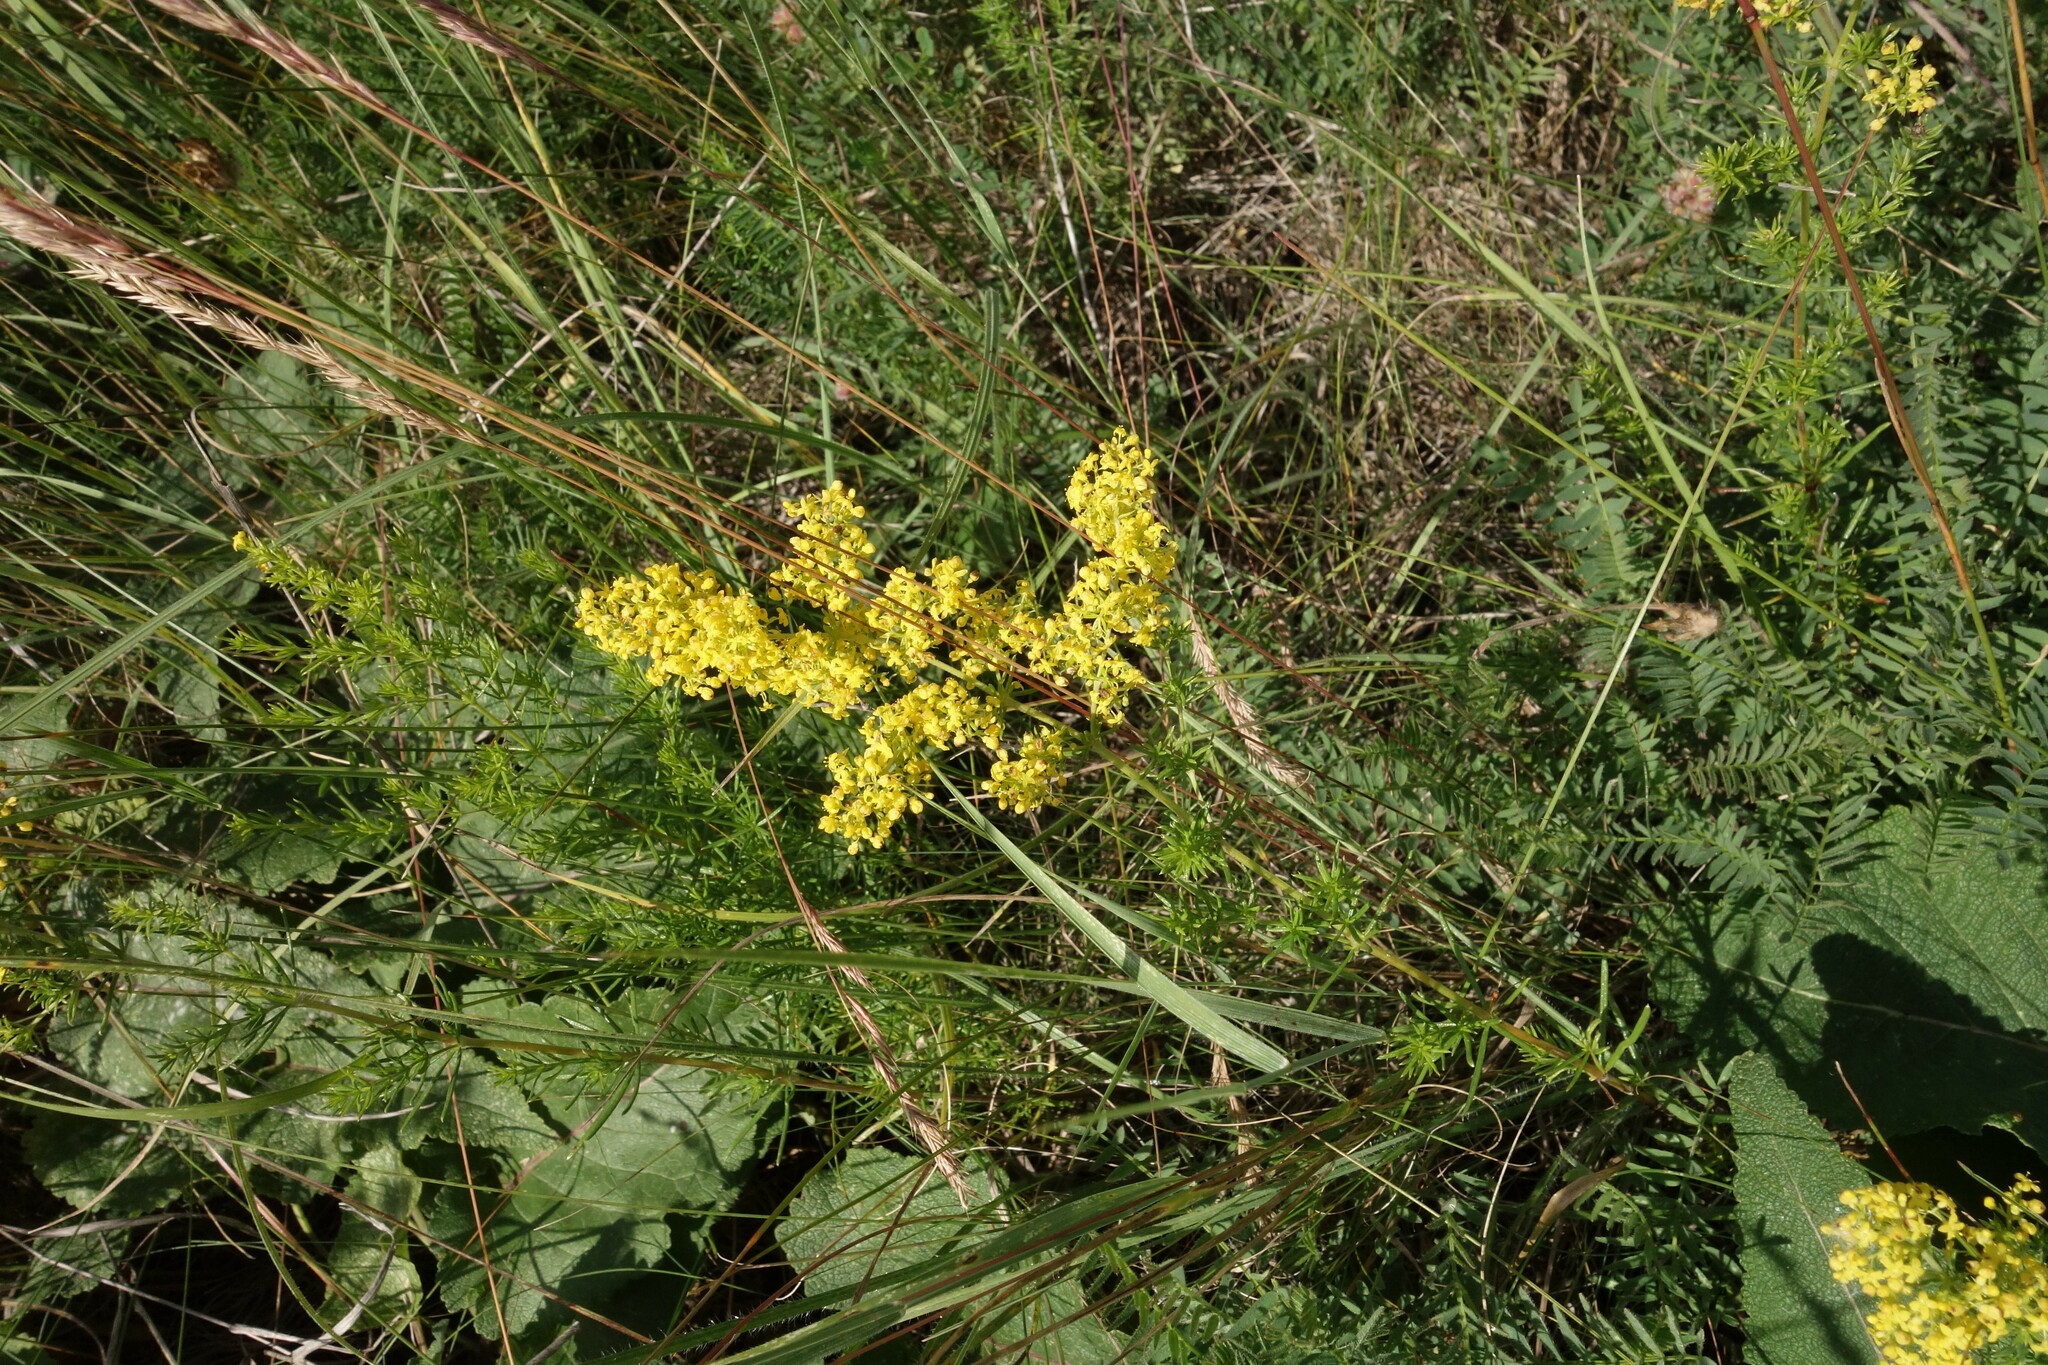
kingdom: Plantae
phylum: Tracheophyta
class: Magnoliopsida
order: Gentianales
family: Rubiaceae
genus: Galium
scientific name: Galium verum
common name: Lady's bedstraw
